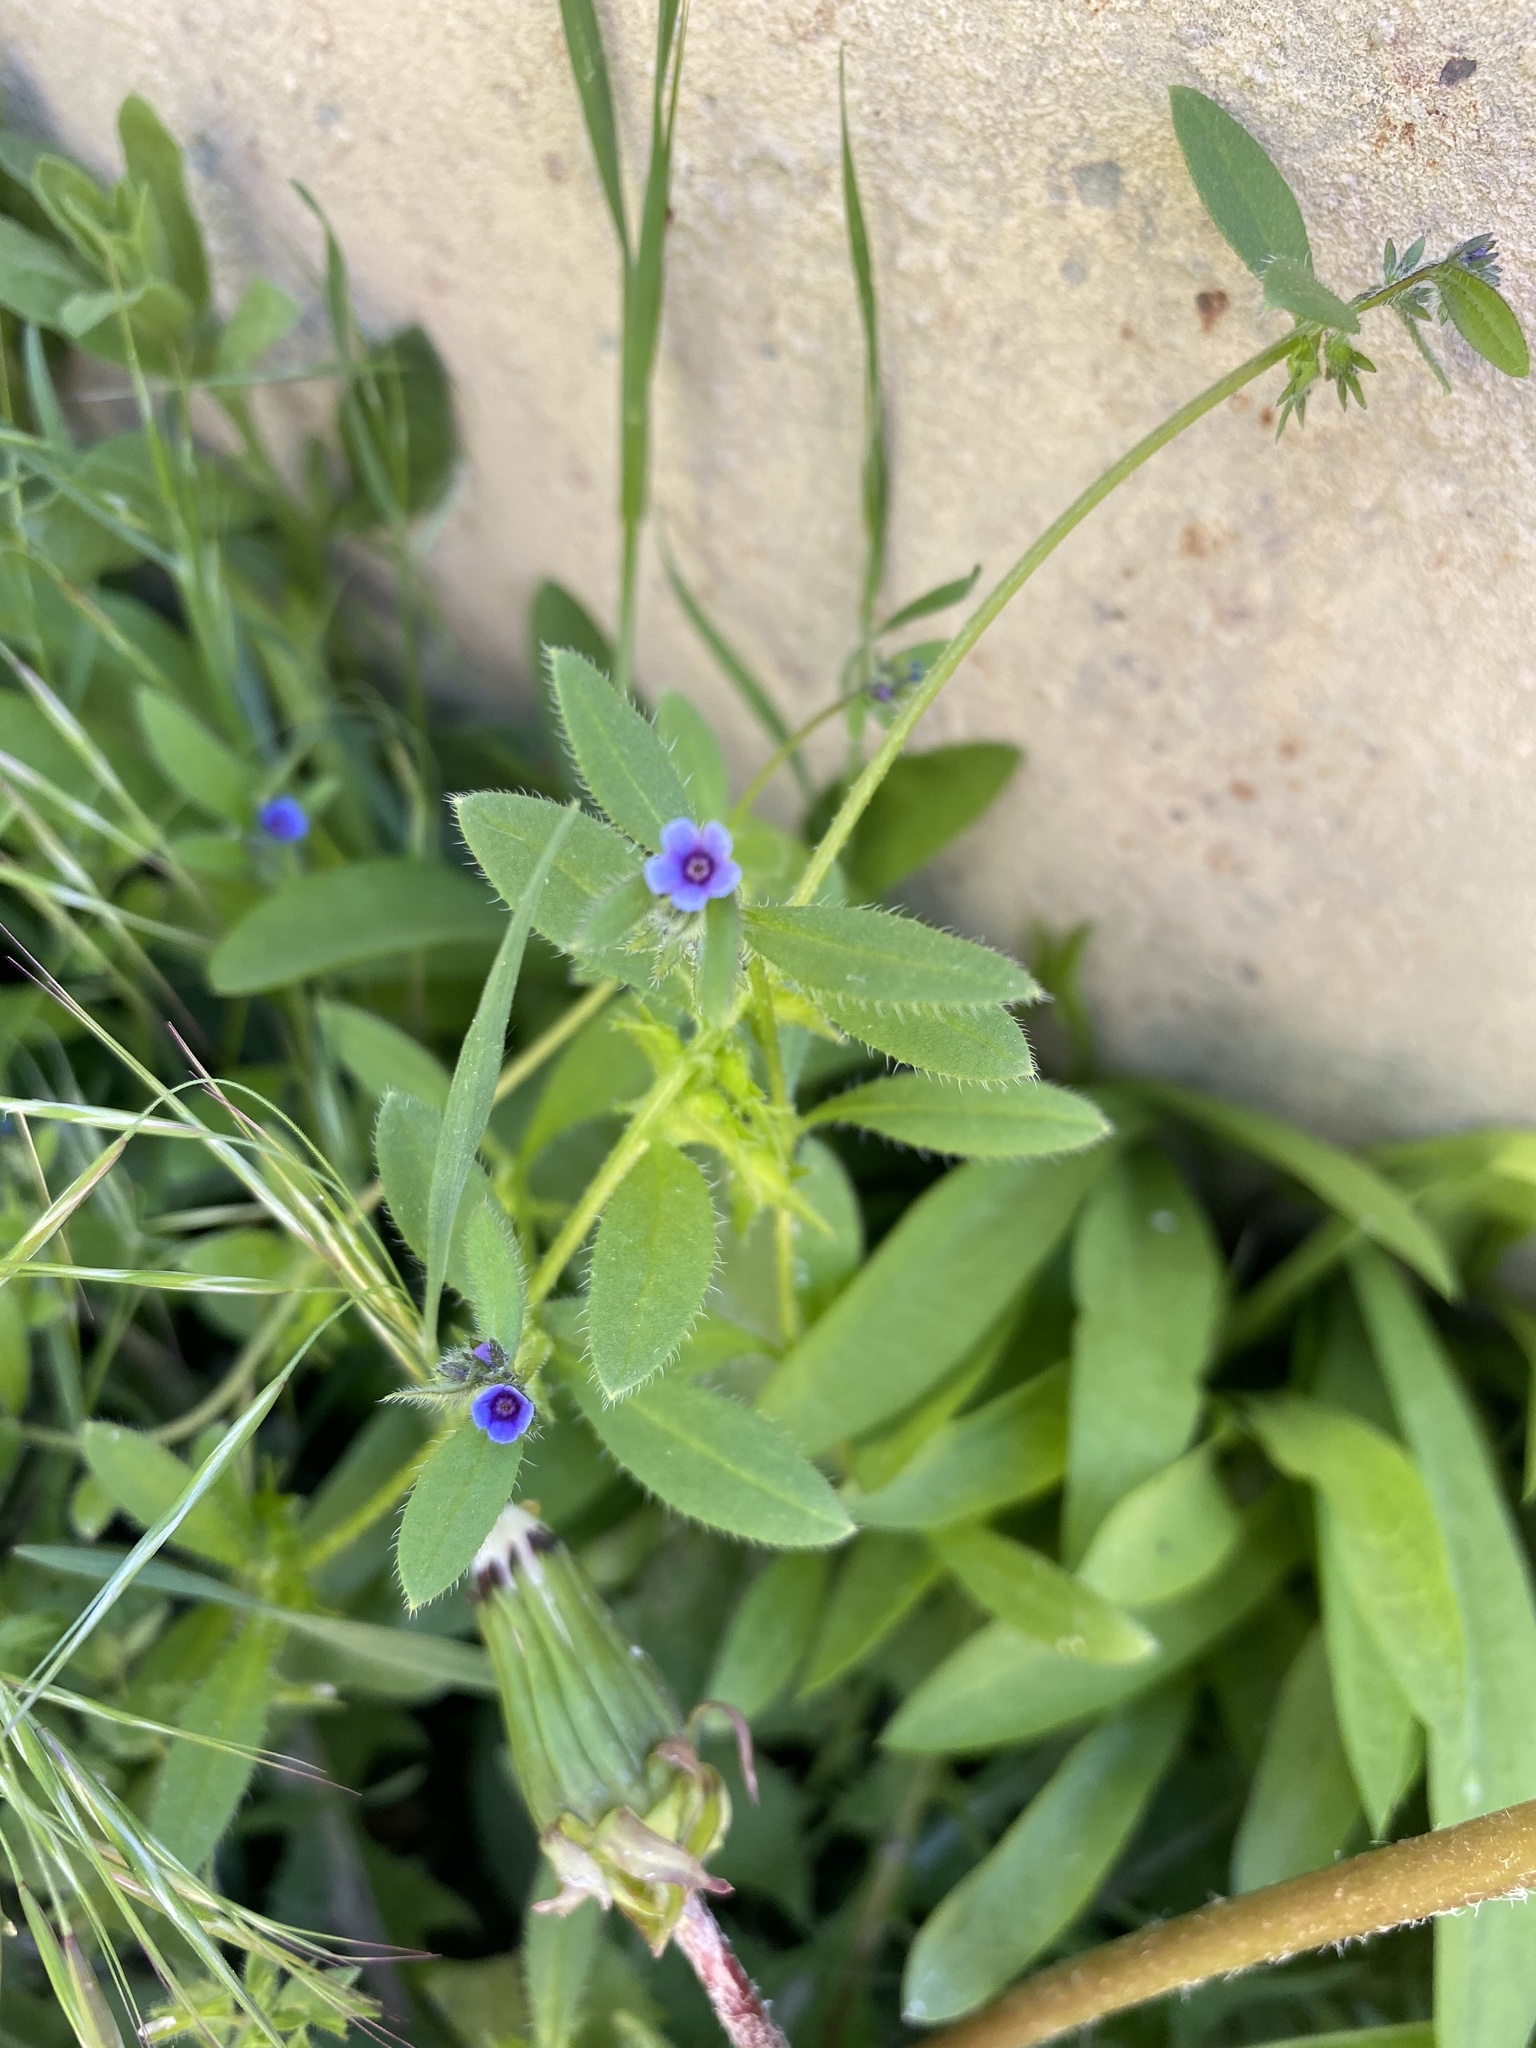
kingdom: Plantae
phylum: Tracheophyta
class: Magnoliopsida
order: Boraginales
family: Boraginaceae
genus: Asperugo
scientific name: Asperugo procumbens
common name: Madwort
